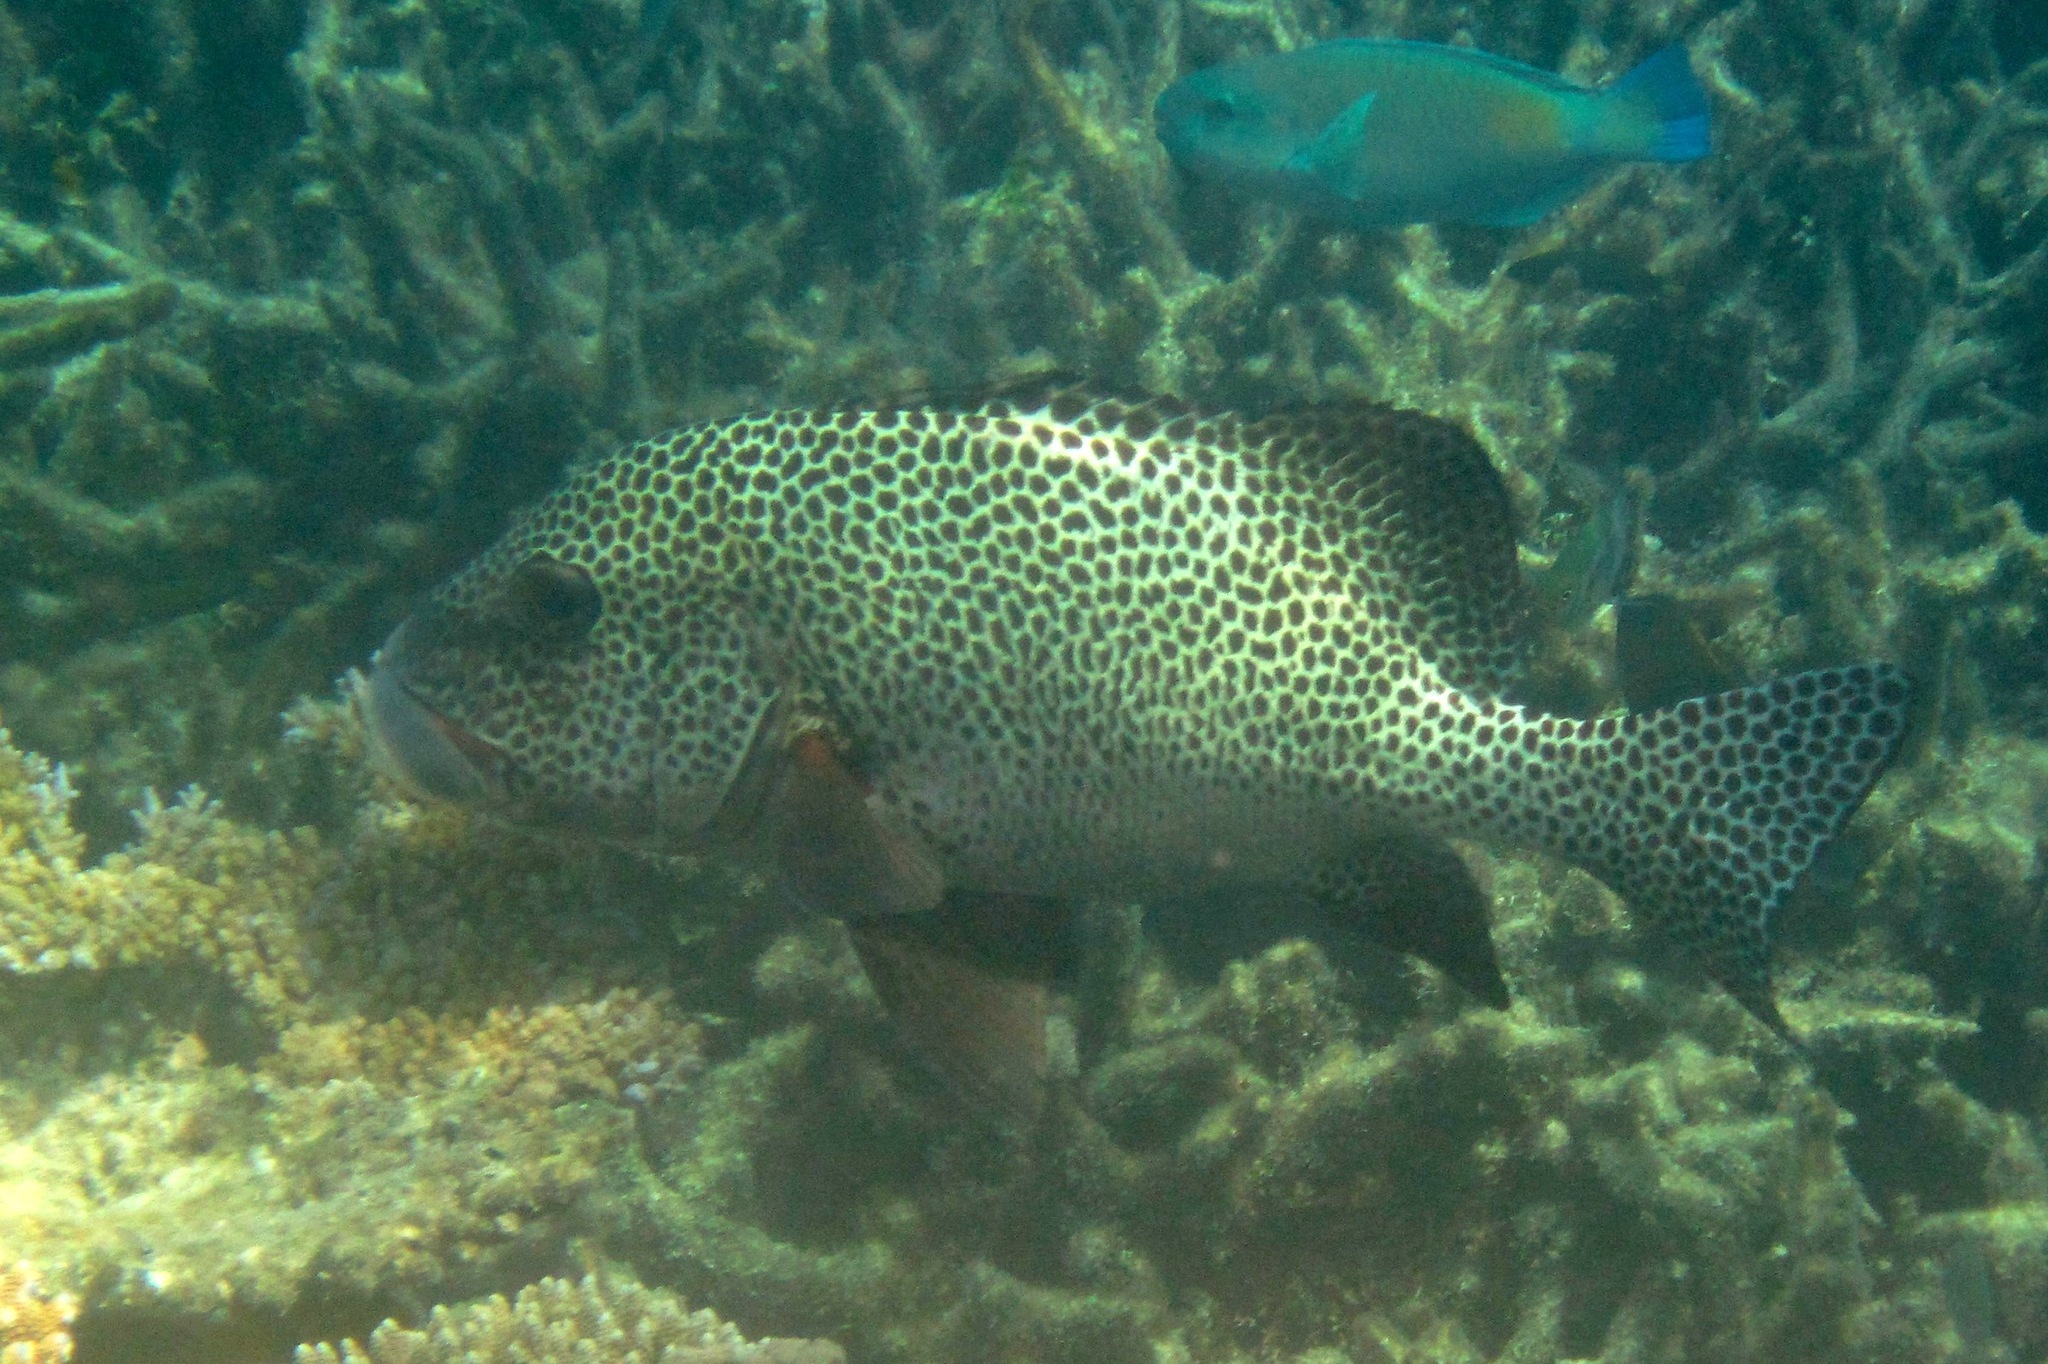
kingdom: Animalia
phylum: Chordata
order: Perciformes
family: Haemulidae
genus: Plectorhinchus
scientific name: Plectorhinchus chaetodonoides
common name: Harlequin sweetlips
